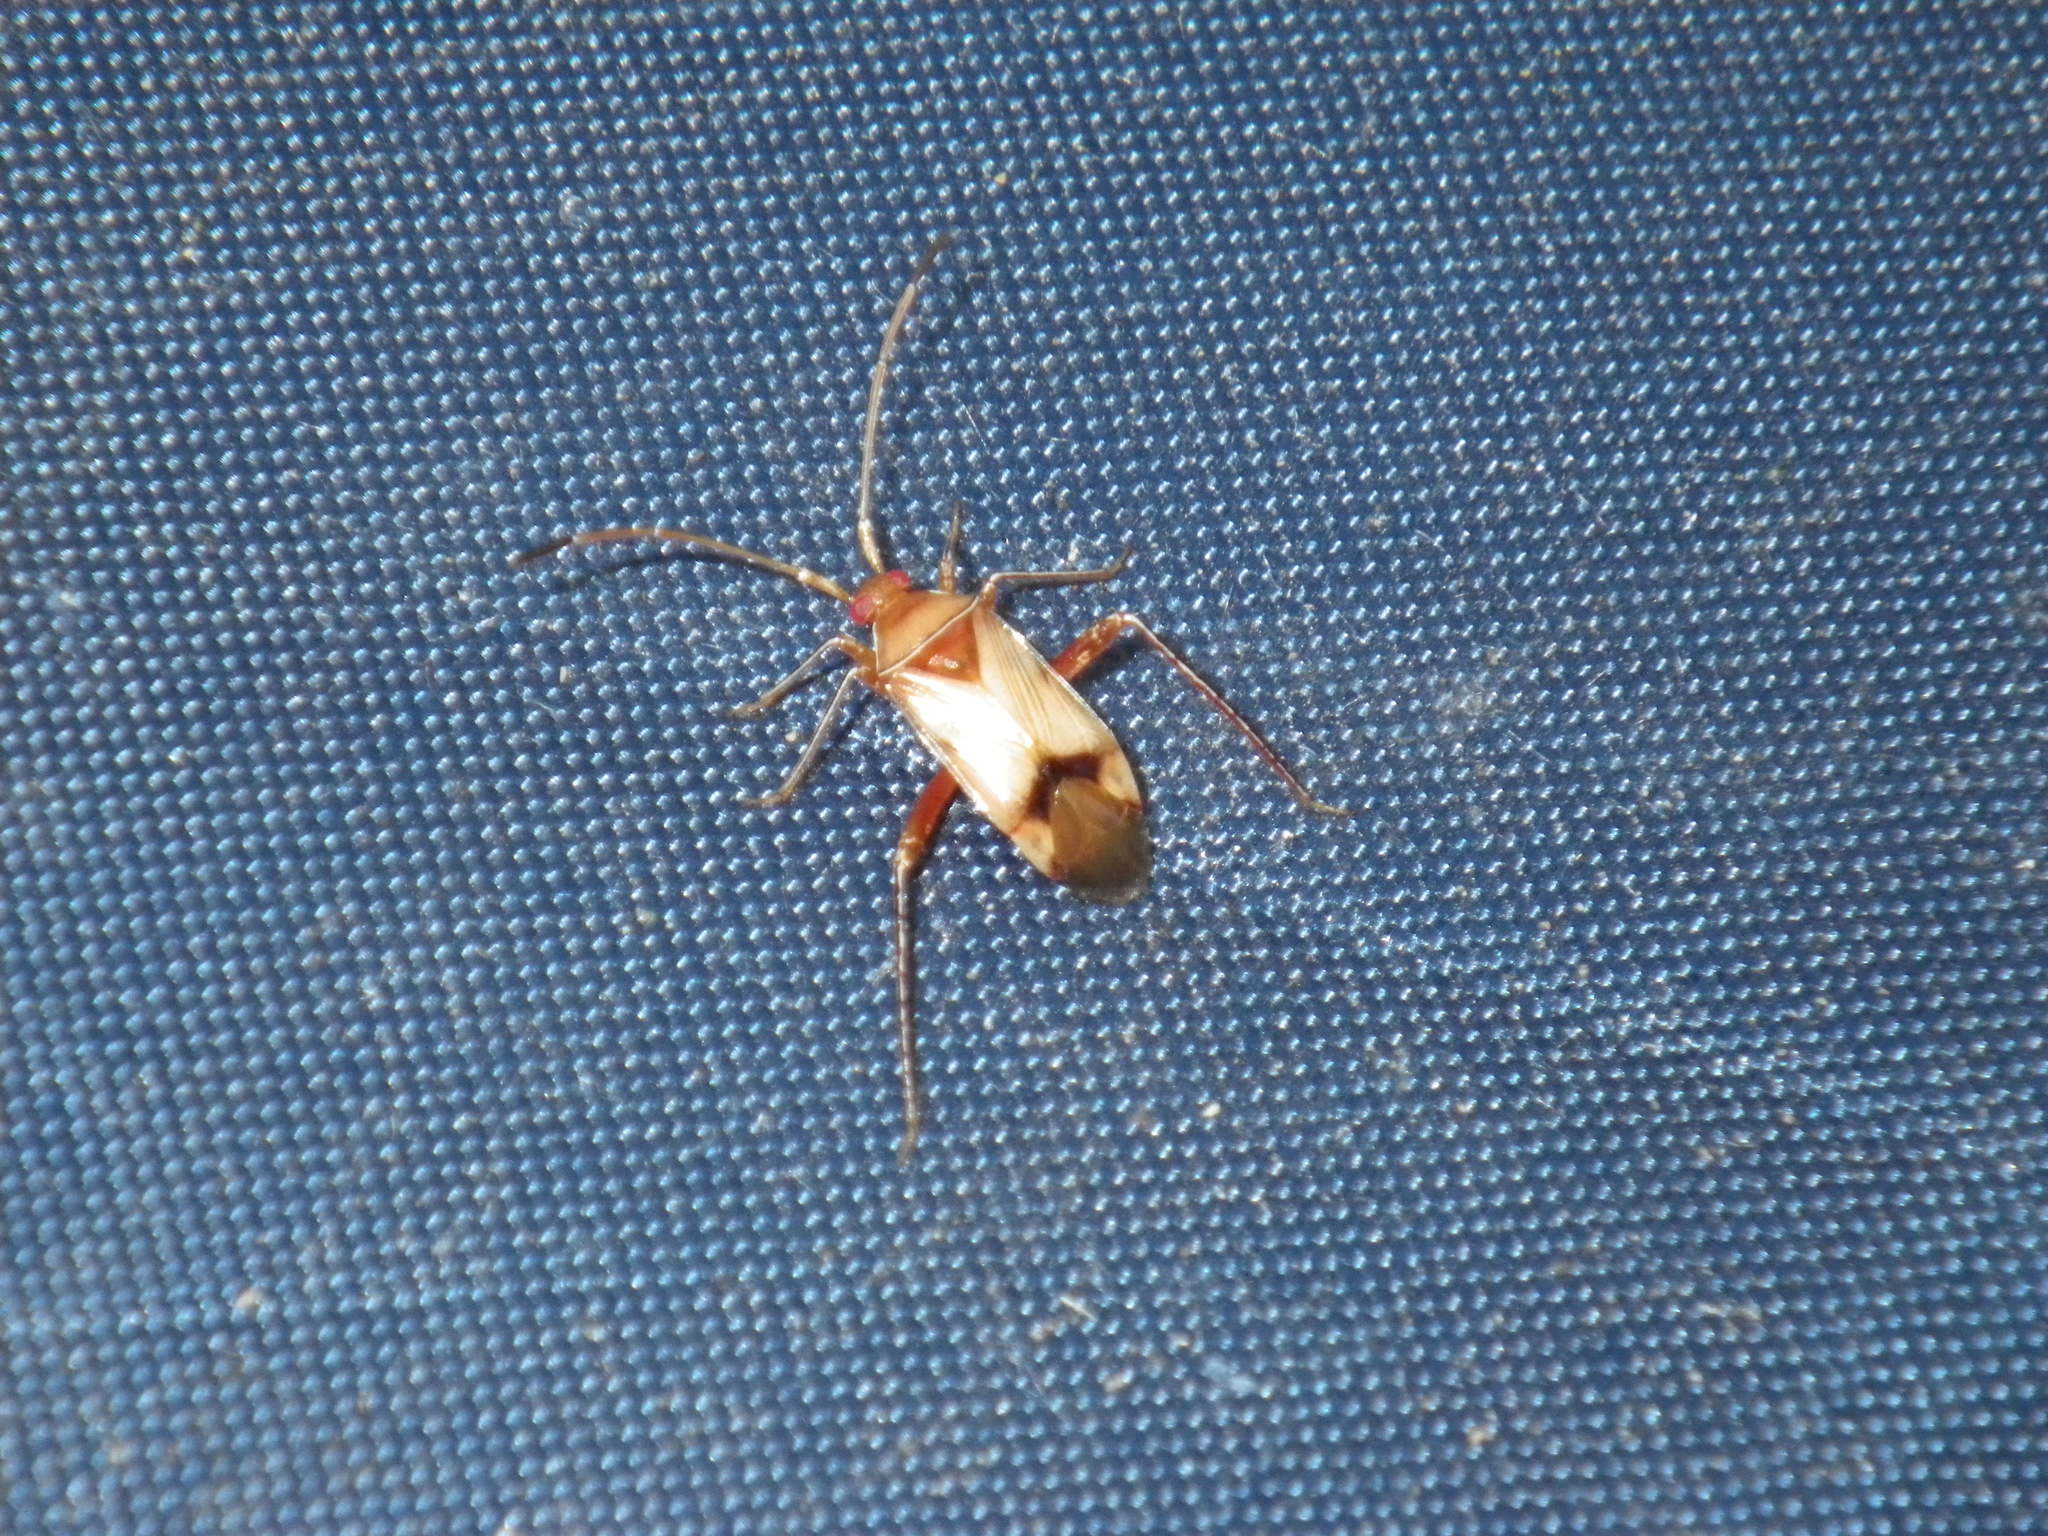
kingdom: Animalia
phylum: Arthropoda
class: Insecta
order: Hemiptera
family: Miridae
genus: Eustictus
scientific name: Eustictus pusillus
